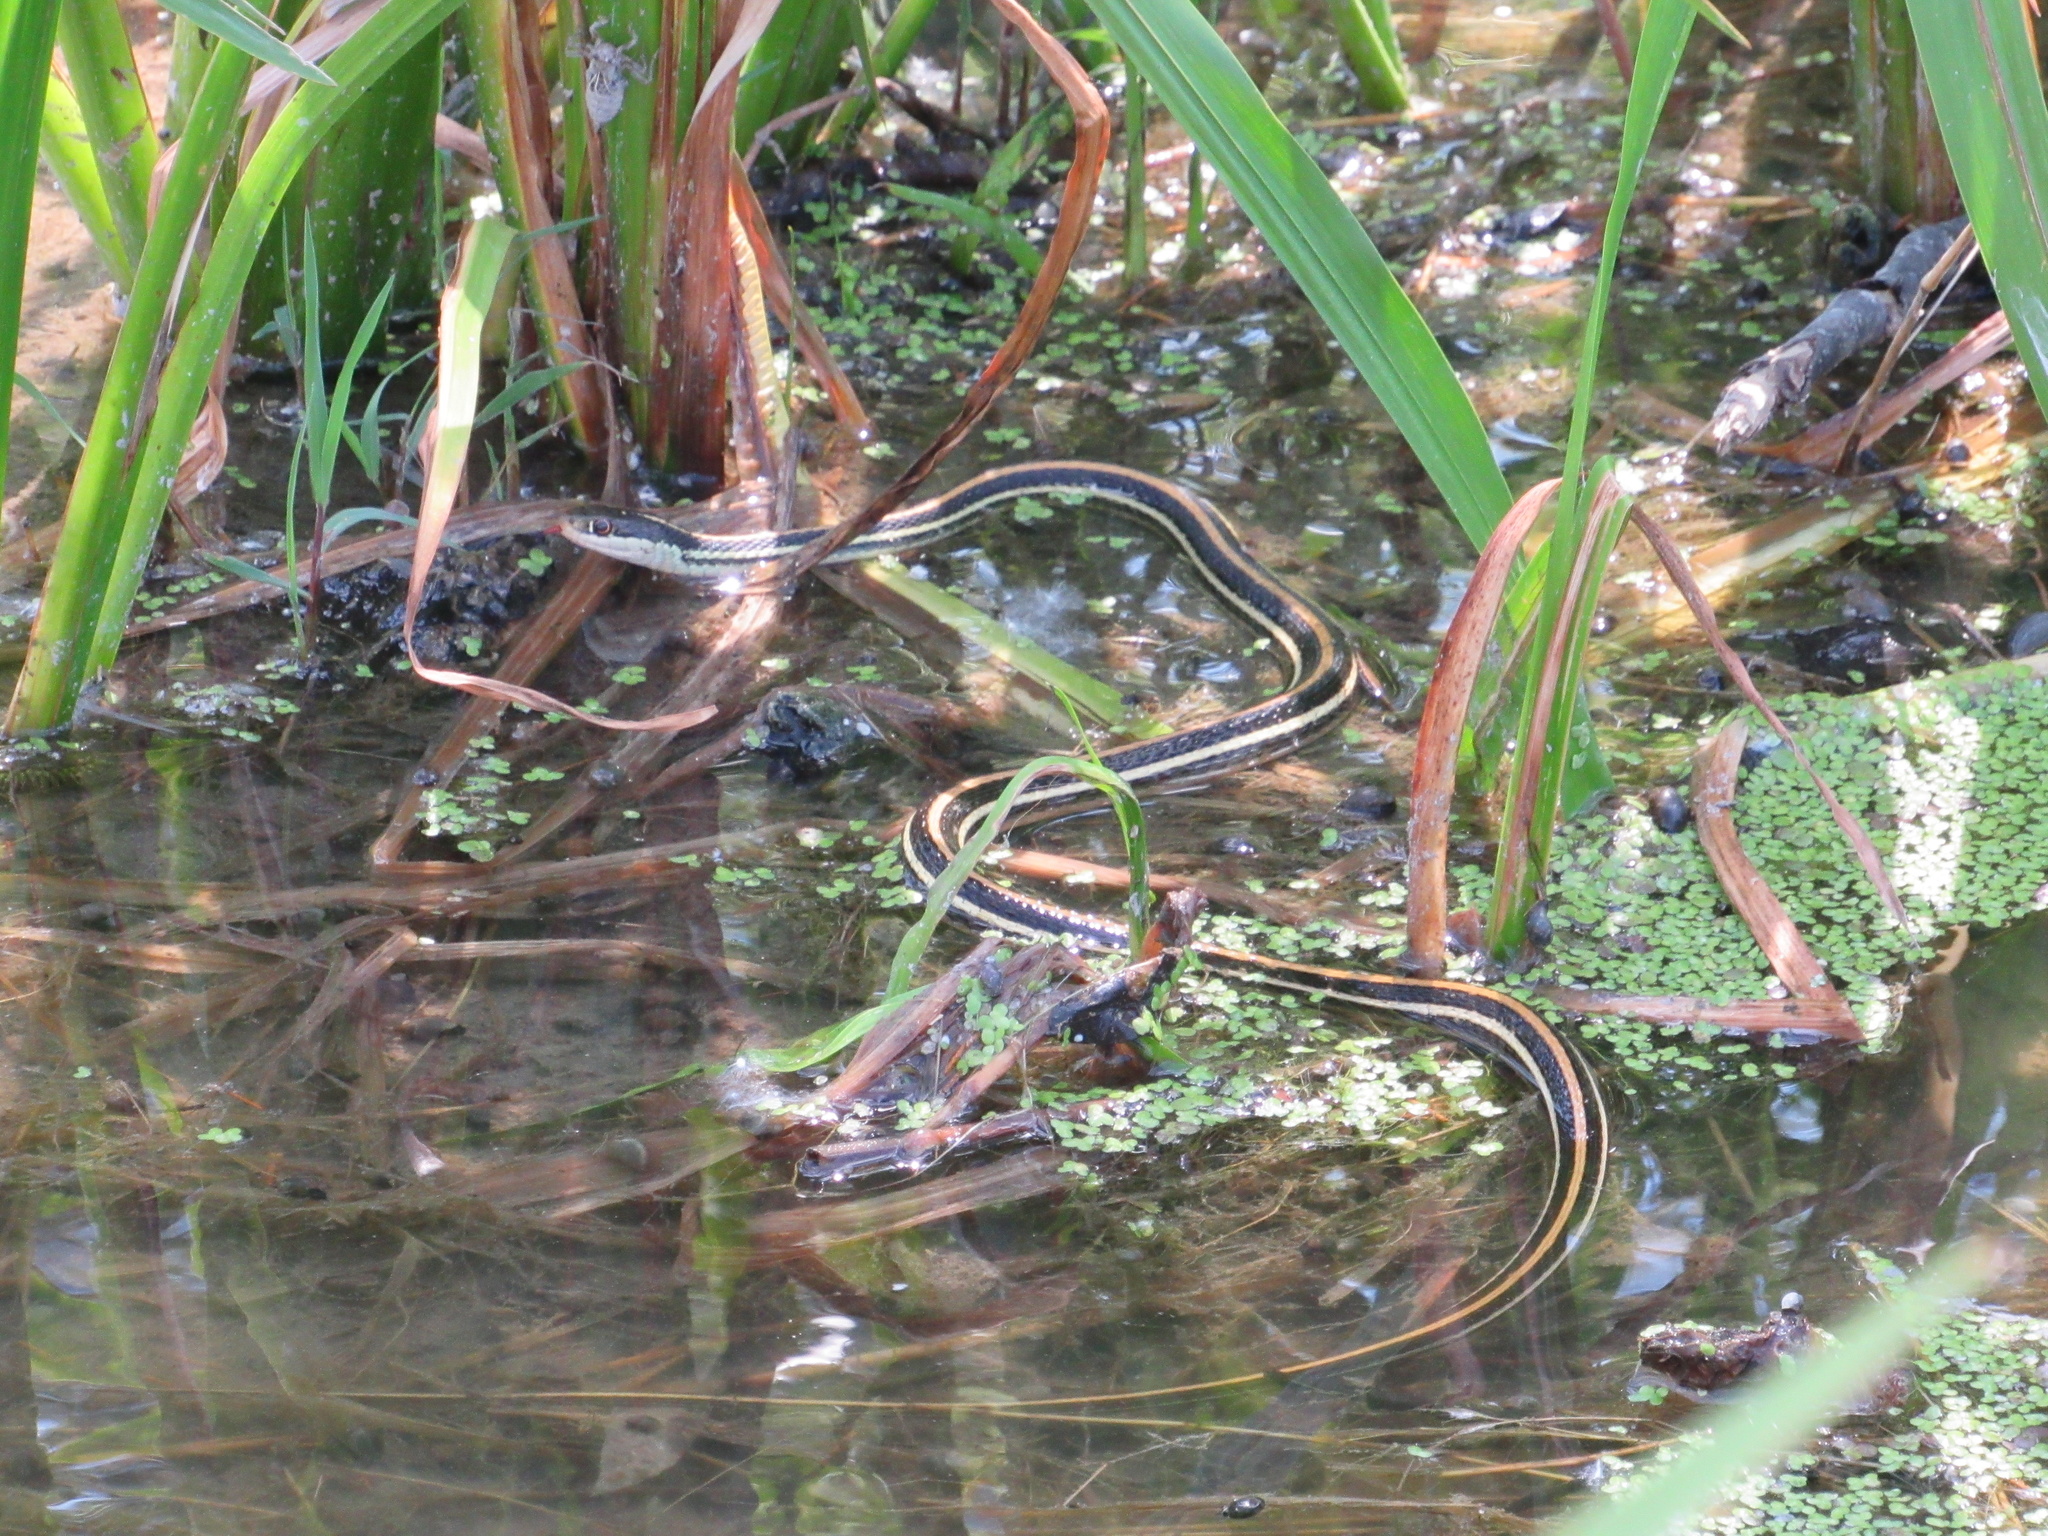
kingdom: Animalia
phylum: Chordata
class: Squamata
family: Colubridae
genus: Thamnophis
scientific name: Thamnophis proximus
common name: Western ribbon snake
